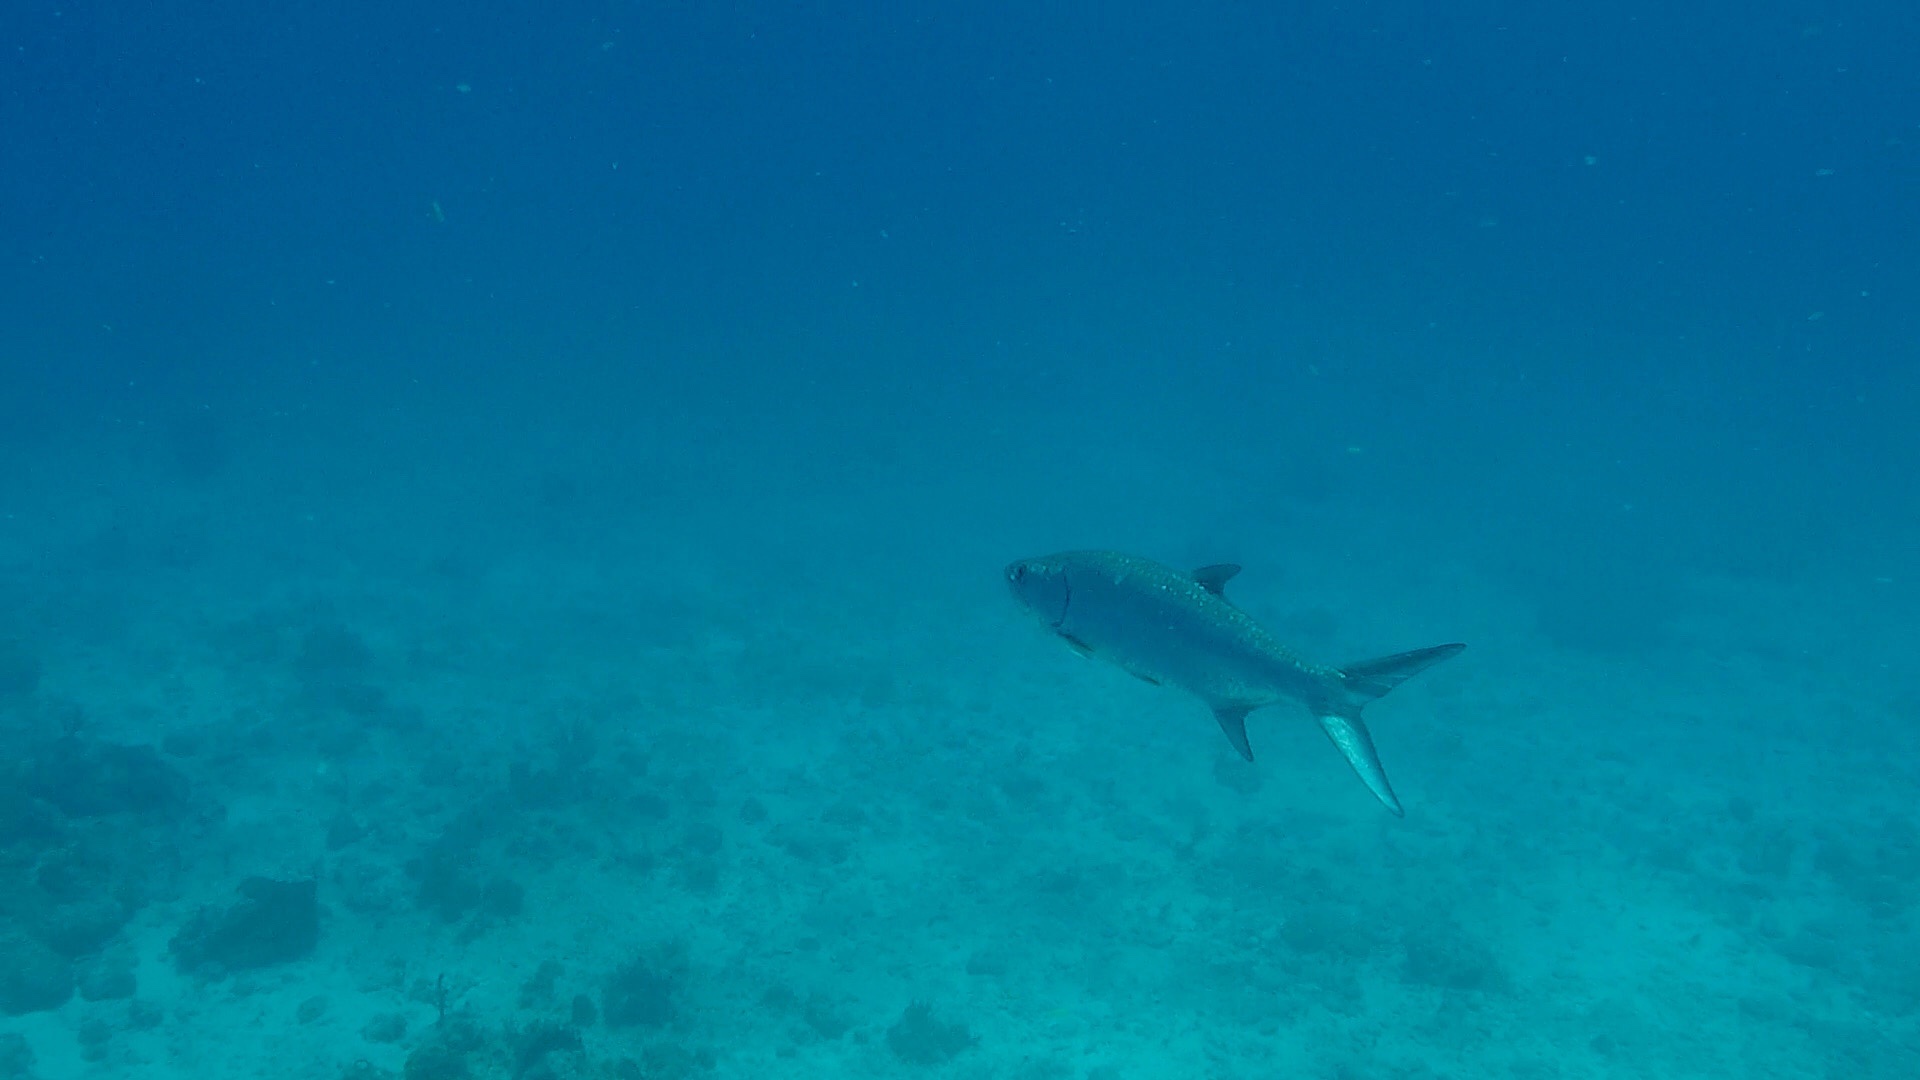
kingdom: Animalia
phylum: Chordata
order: Elopiformes
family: Megalopidae
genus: Megalops
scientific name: Megalops atlanticus
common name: Tarpon
